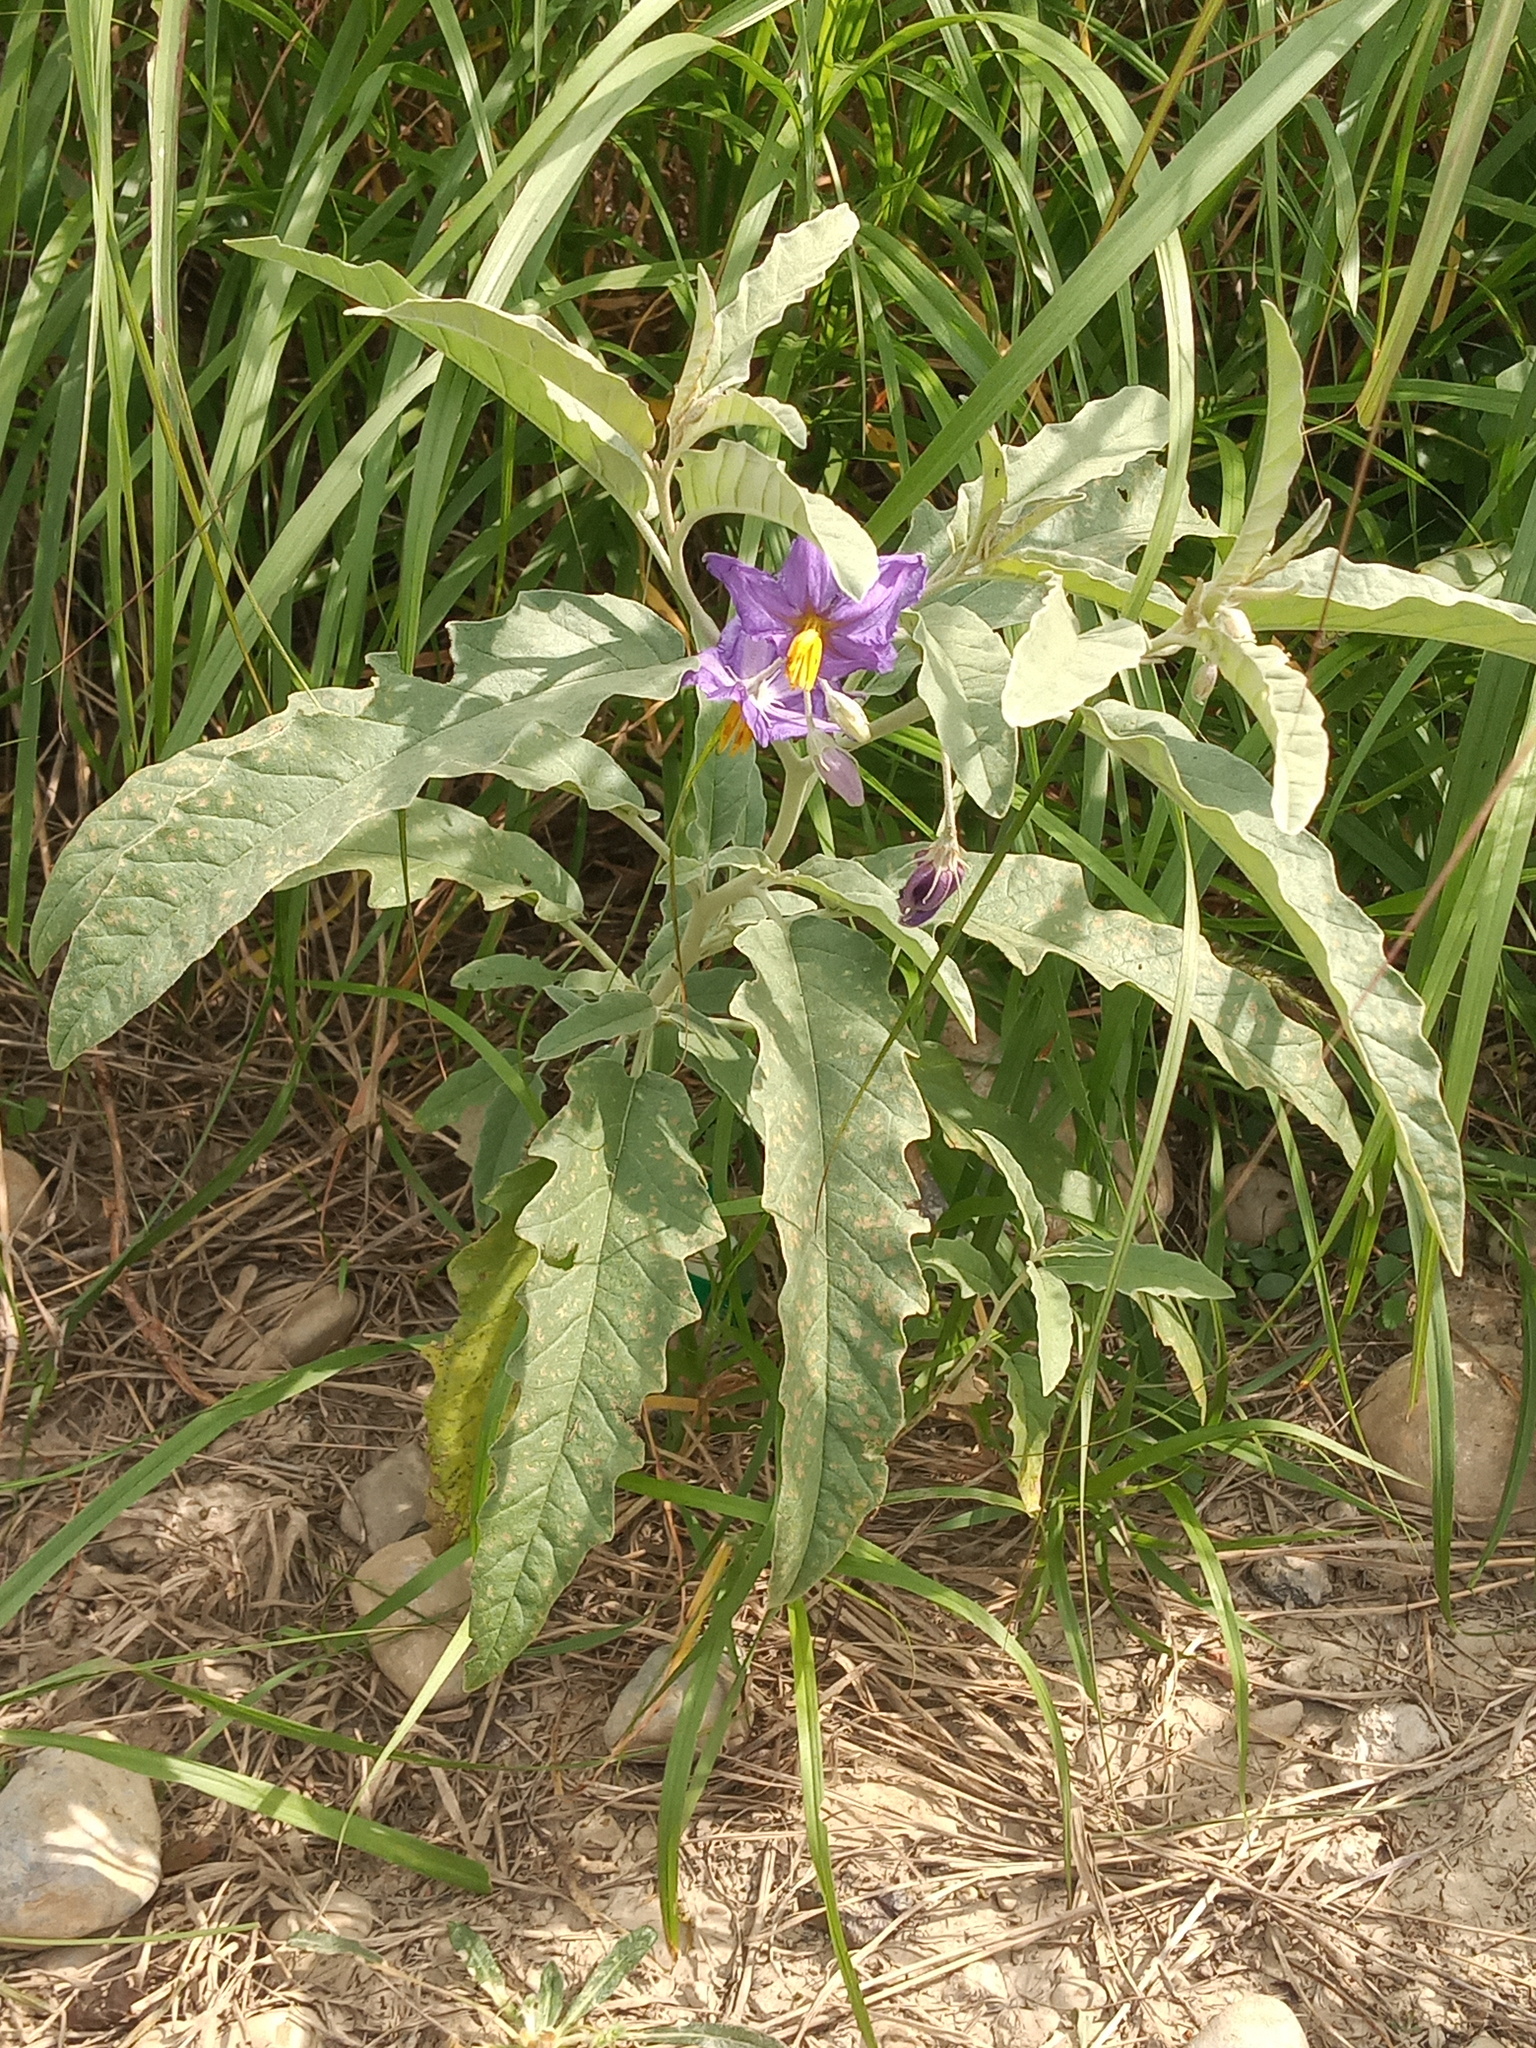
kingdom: Plantae
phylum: Tracheophyta
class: Magnoliopsida
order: Solanales
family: Solanaceae
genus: Solanum
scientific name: Solanum elaeagnifolium
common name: Silverleaf nightshade
